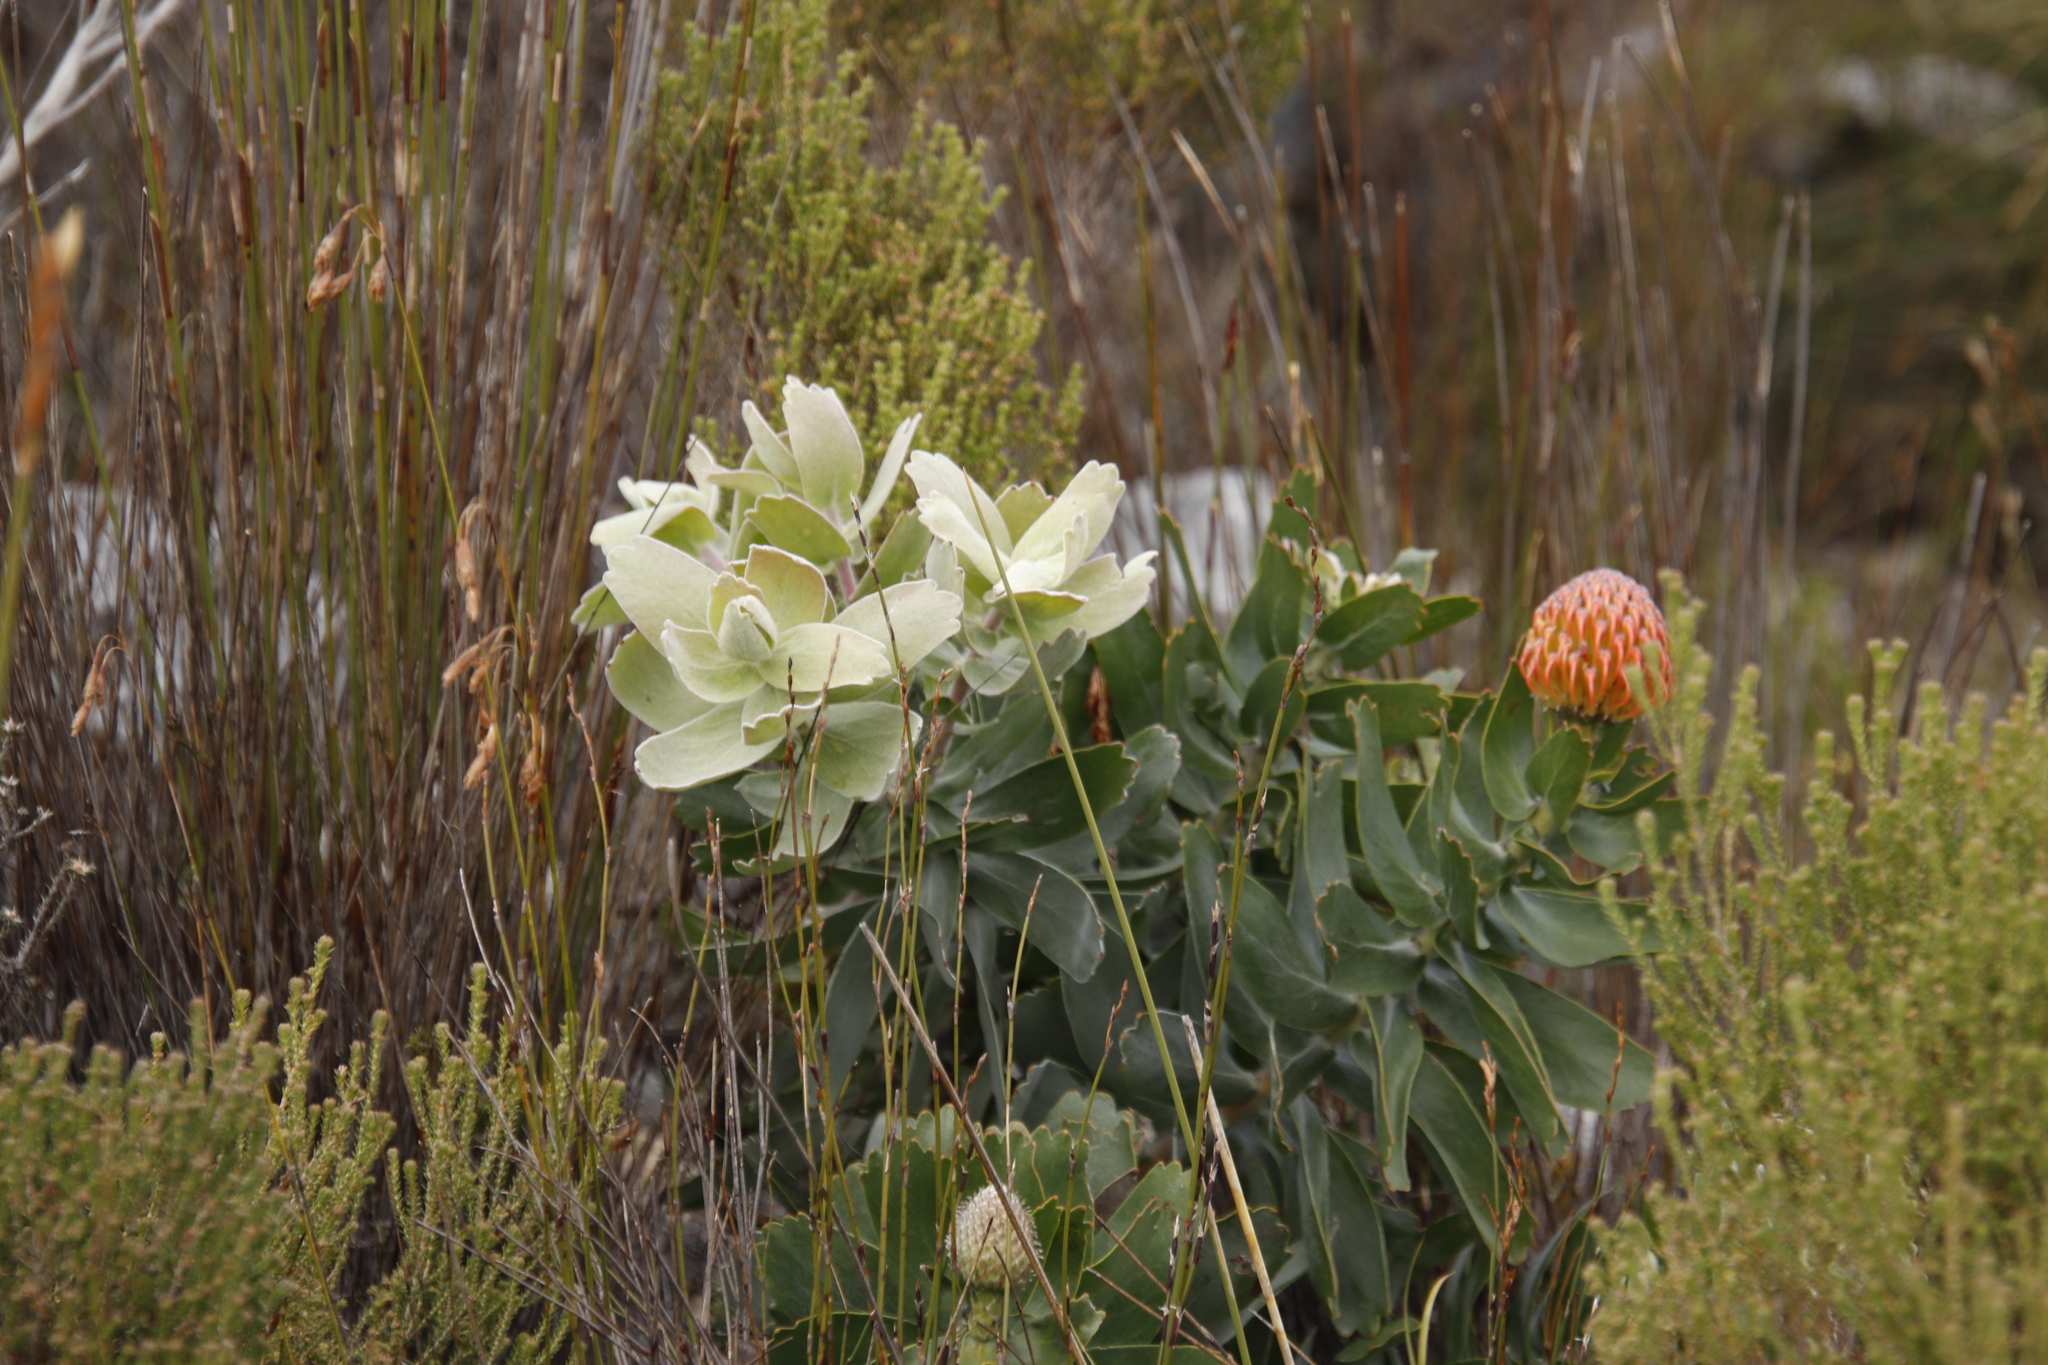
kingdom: Plantae
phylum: Tracheophyta
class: Magnoliopsida
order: Proteales
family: Proteaceae
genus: Leucospermum
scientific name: Leucospermum cordifolium
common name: Red pincushion-protea
